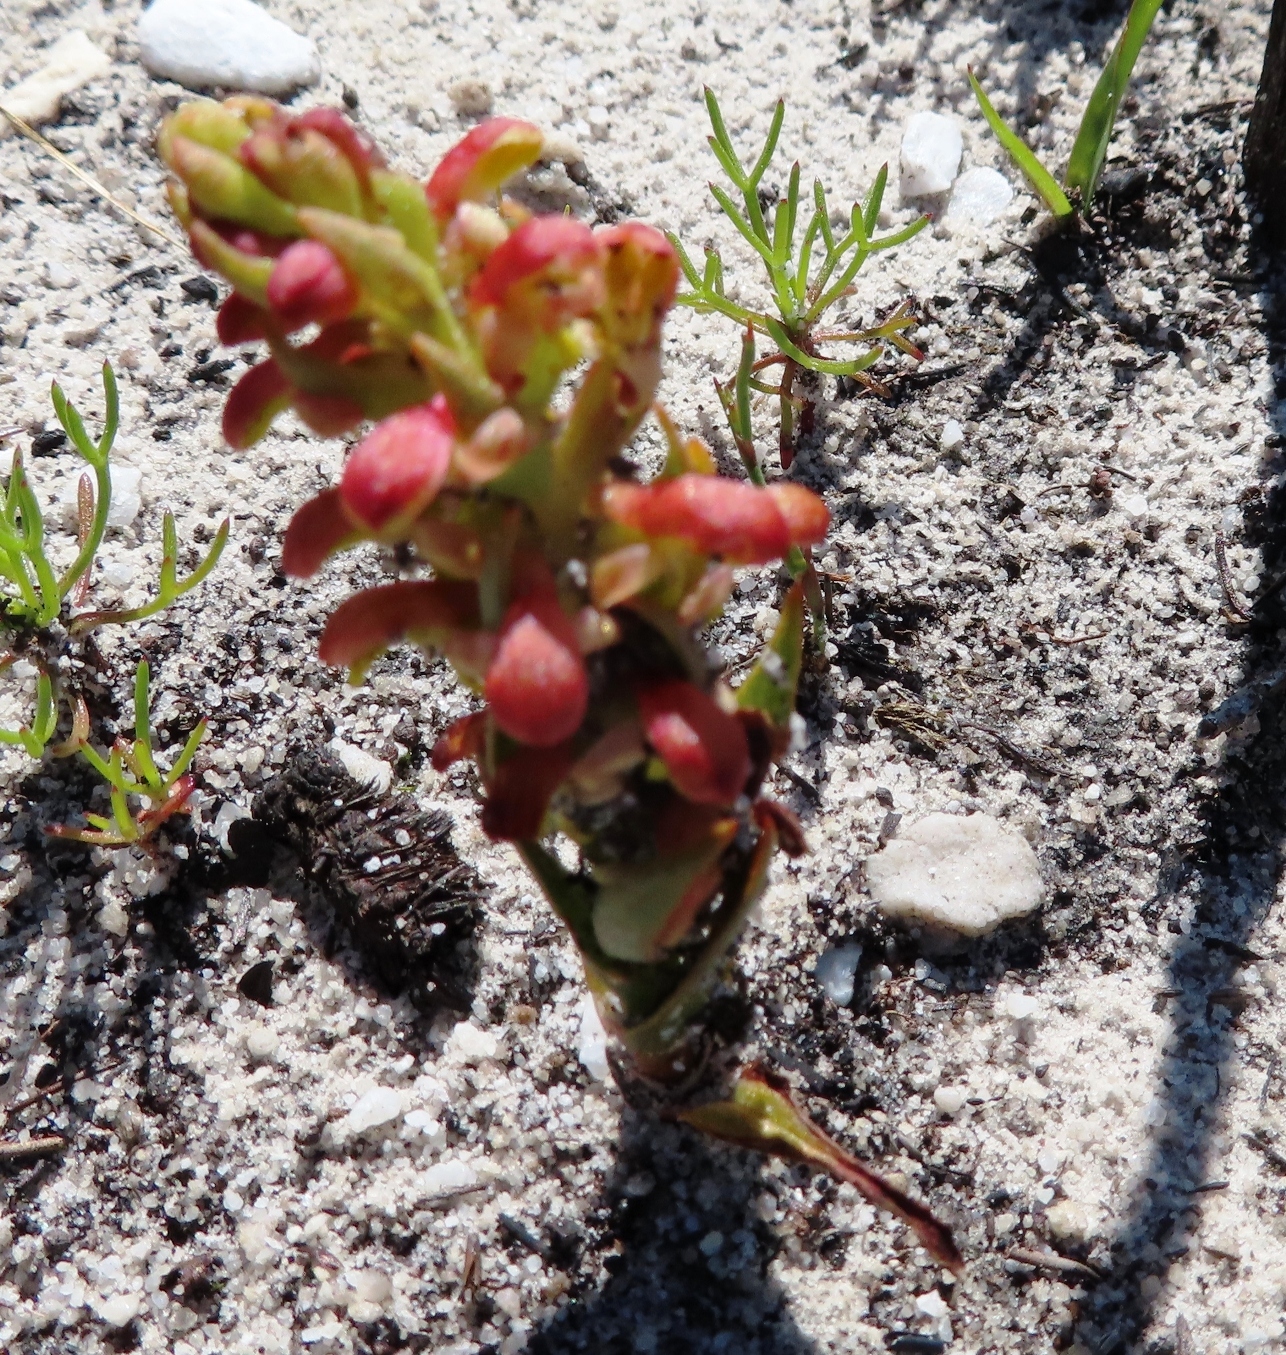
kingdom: Plantae
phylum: Tracheophyta
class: Liliopsida
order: Asparagales
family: Orchidaceae
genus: Disa
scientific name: Disa pygmaea
